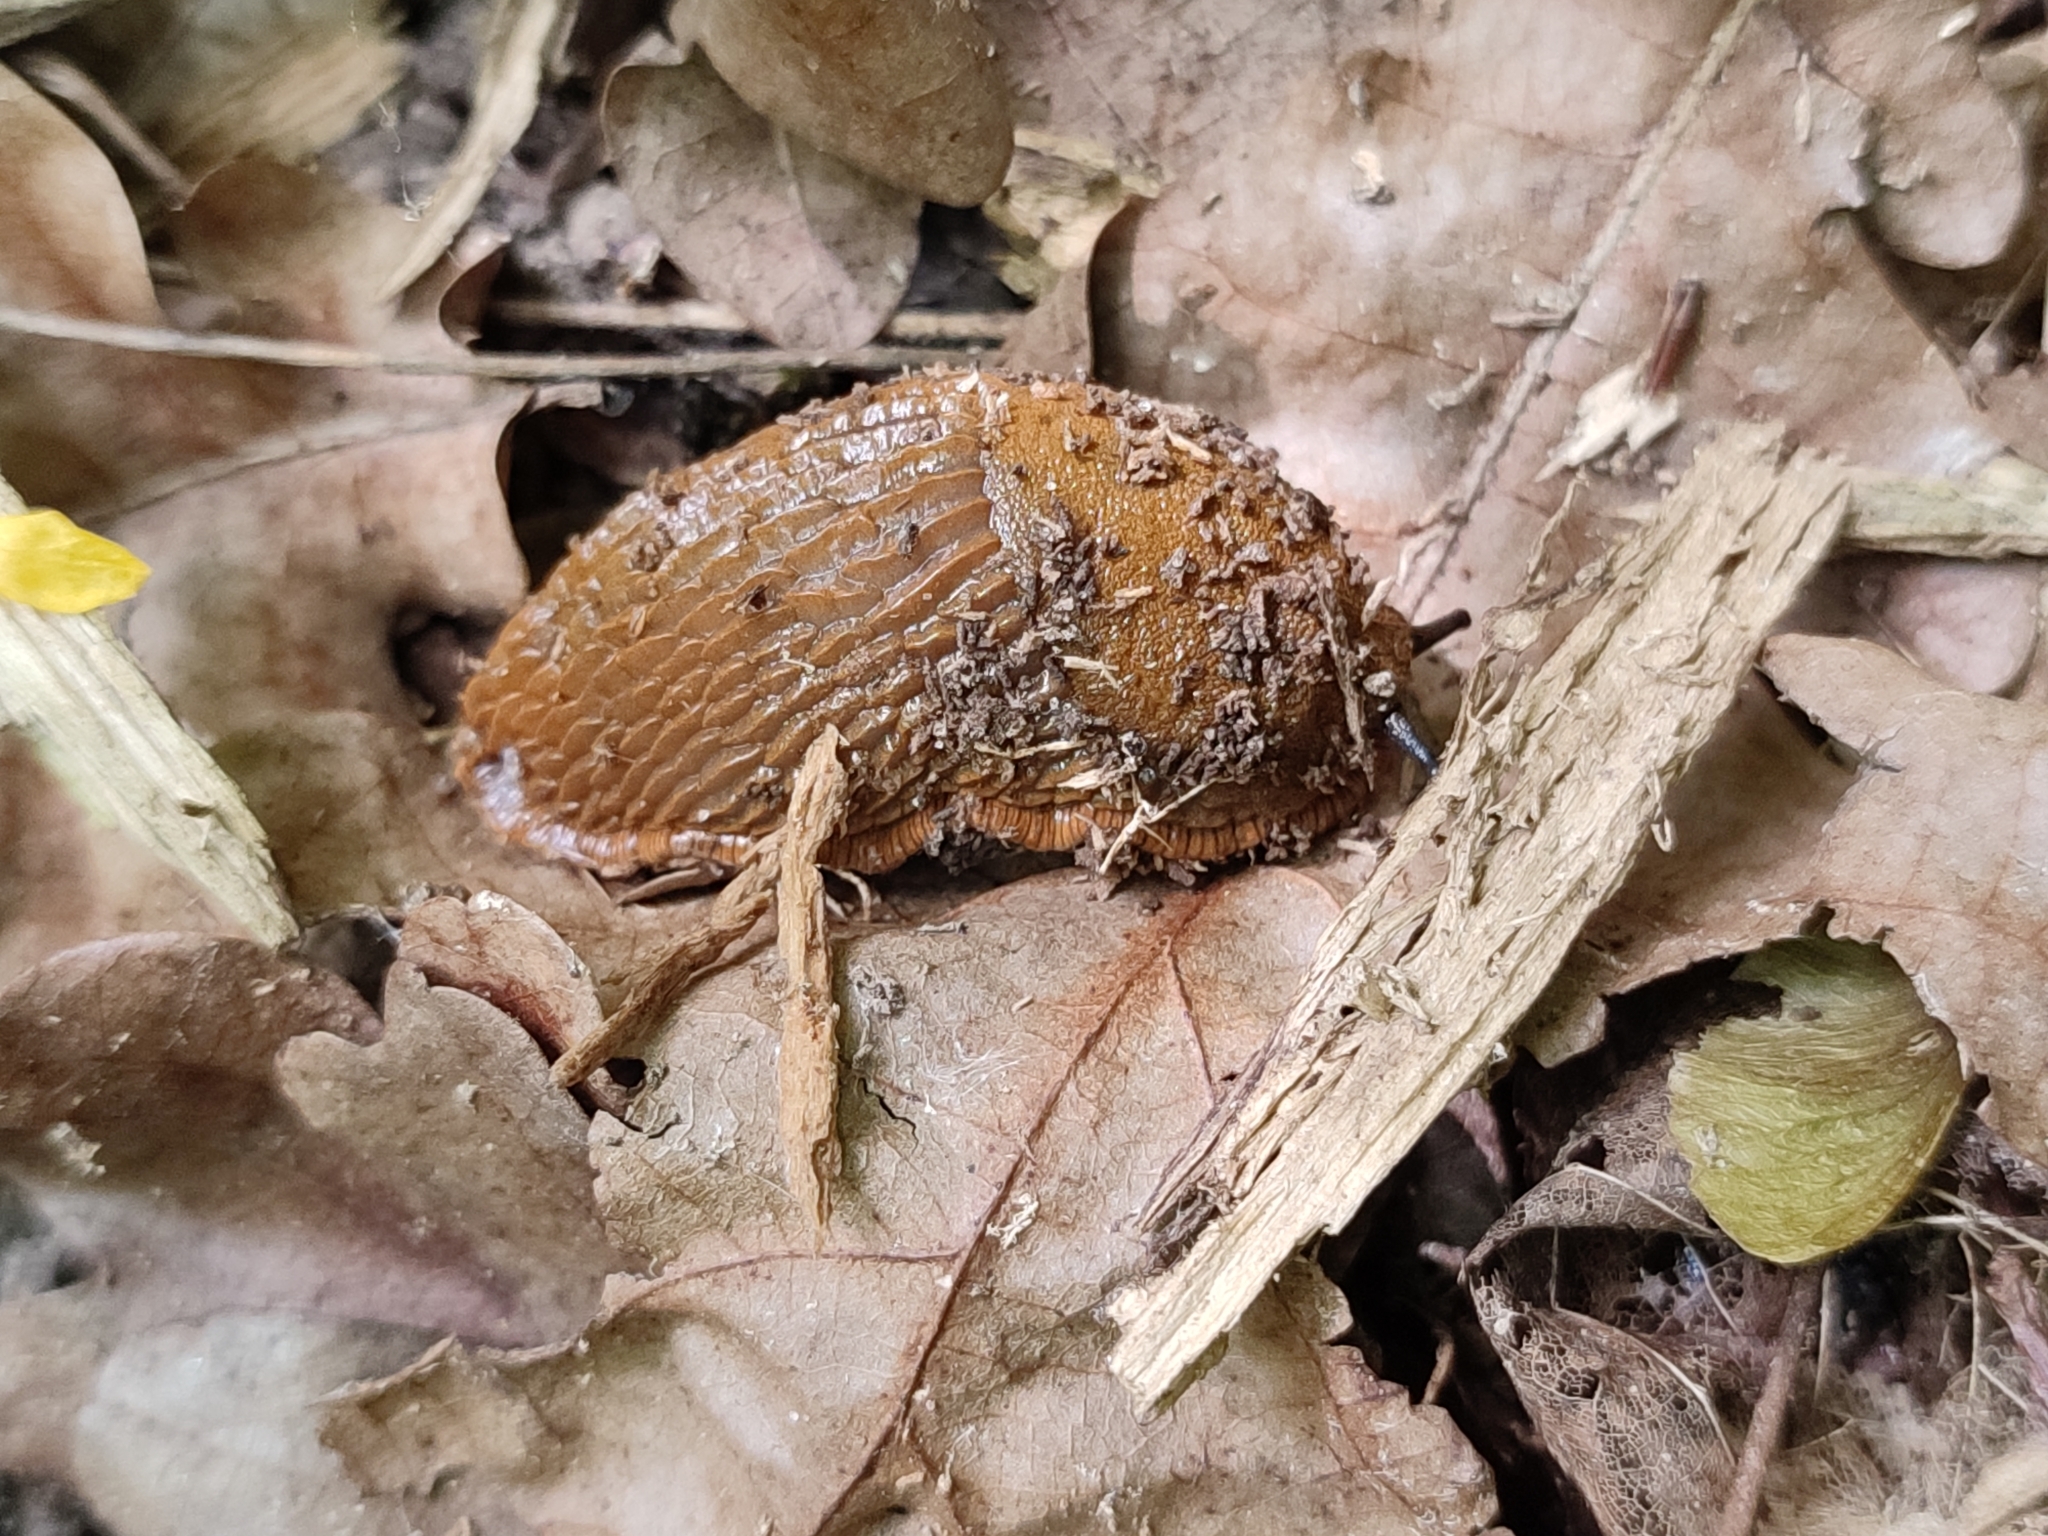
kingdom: Animalia
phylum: Mollusca
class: Gastropoda
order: Stylommatophora
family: Arionidae
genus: Arion
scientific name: Arion vulgaris
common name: Lusitanian slug
